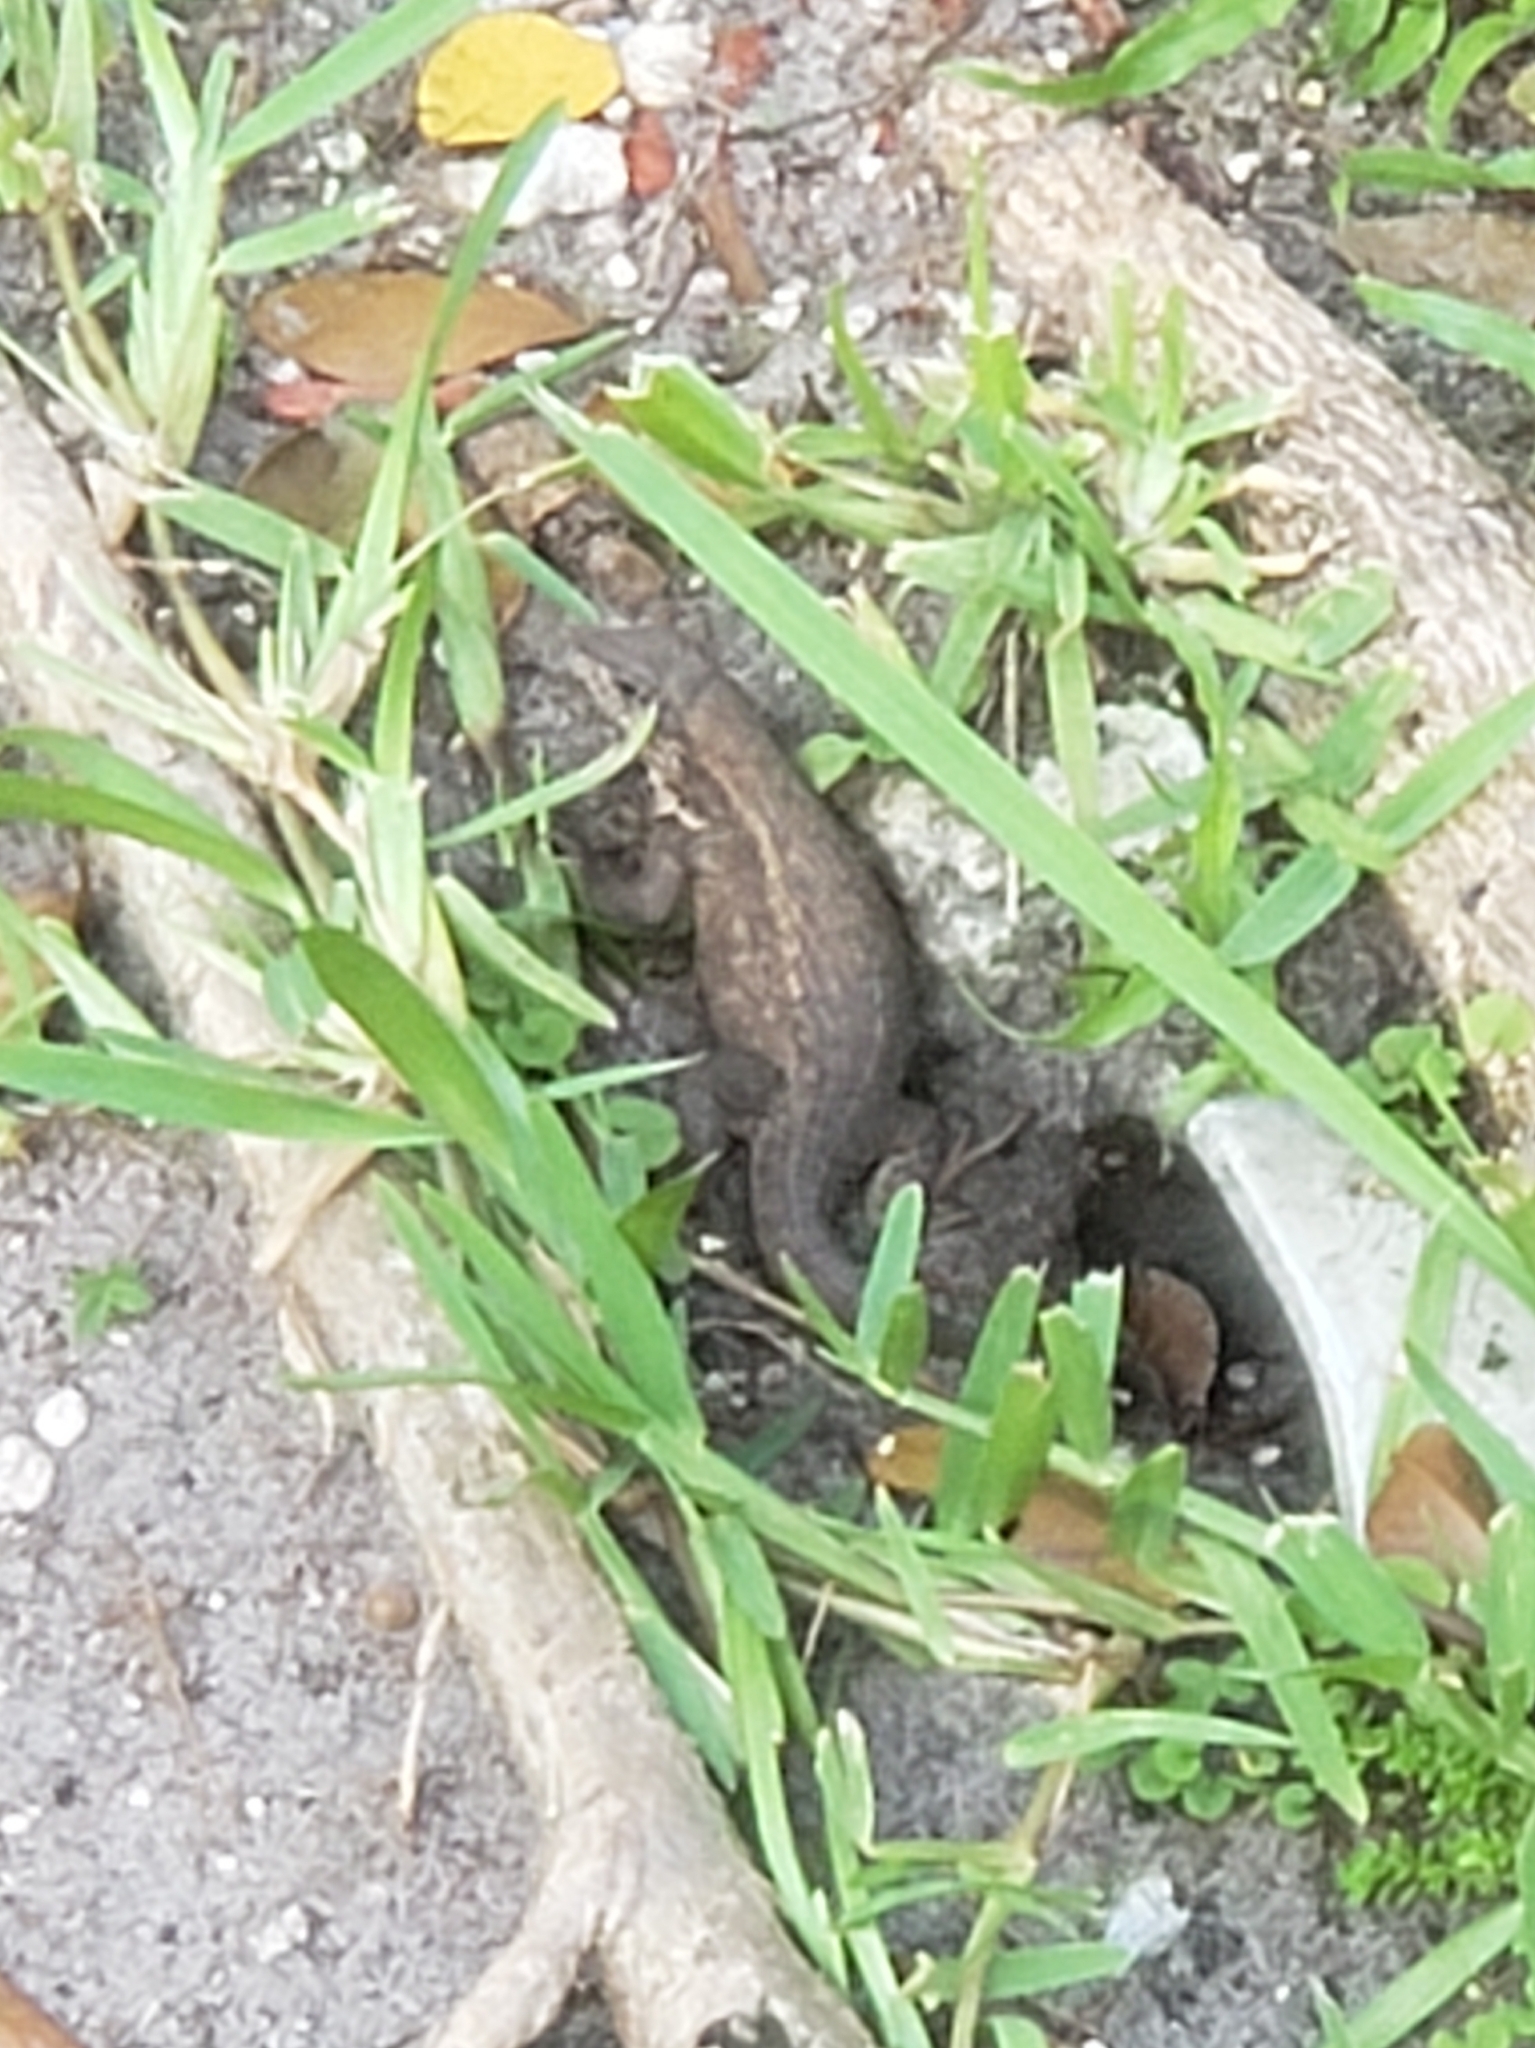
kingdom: Animalia
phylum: Chordata
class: Squamata
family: Leiocephalidae
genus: Leiocephalus
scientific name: Leiocephalus carinatus
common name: Northern curly-tailed lizard
